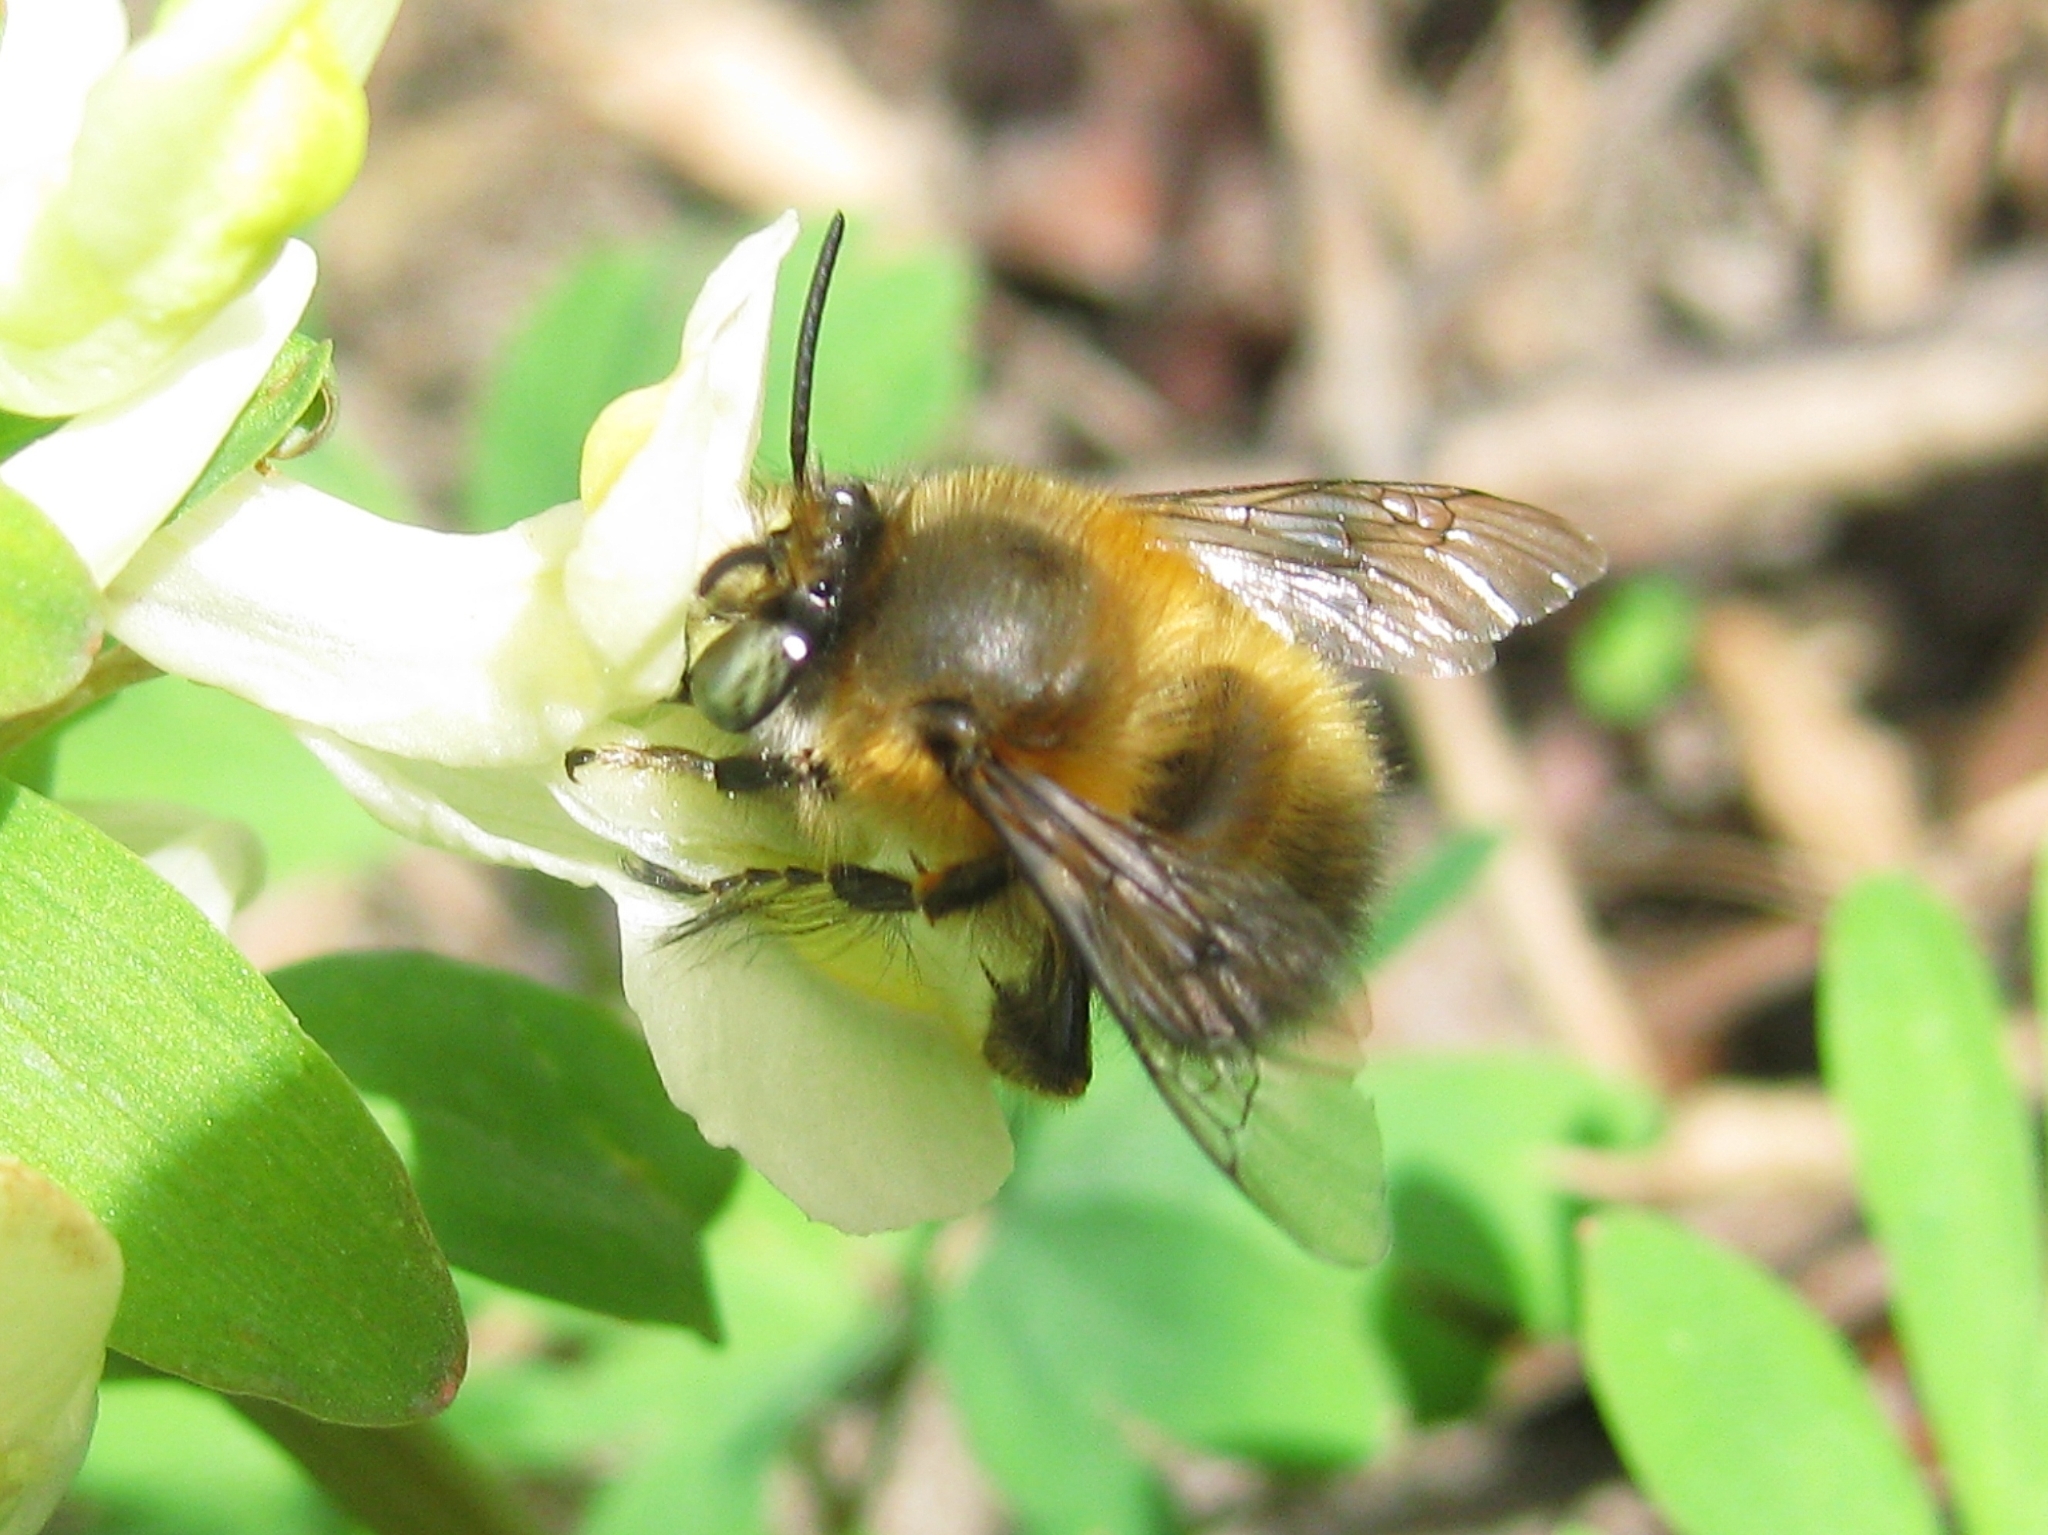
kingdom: Animalia
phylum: Arthropoda
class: Insecta
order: Hymenoptera
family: Apidae
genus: Anthophora
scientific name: Anthophora
